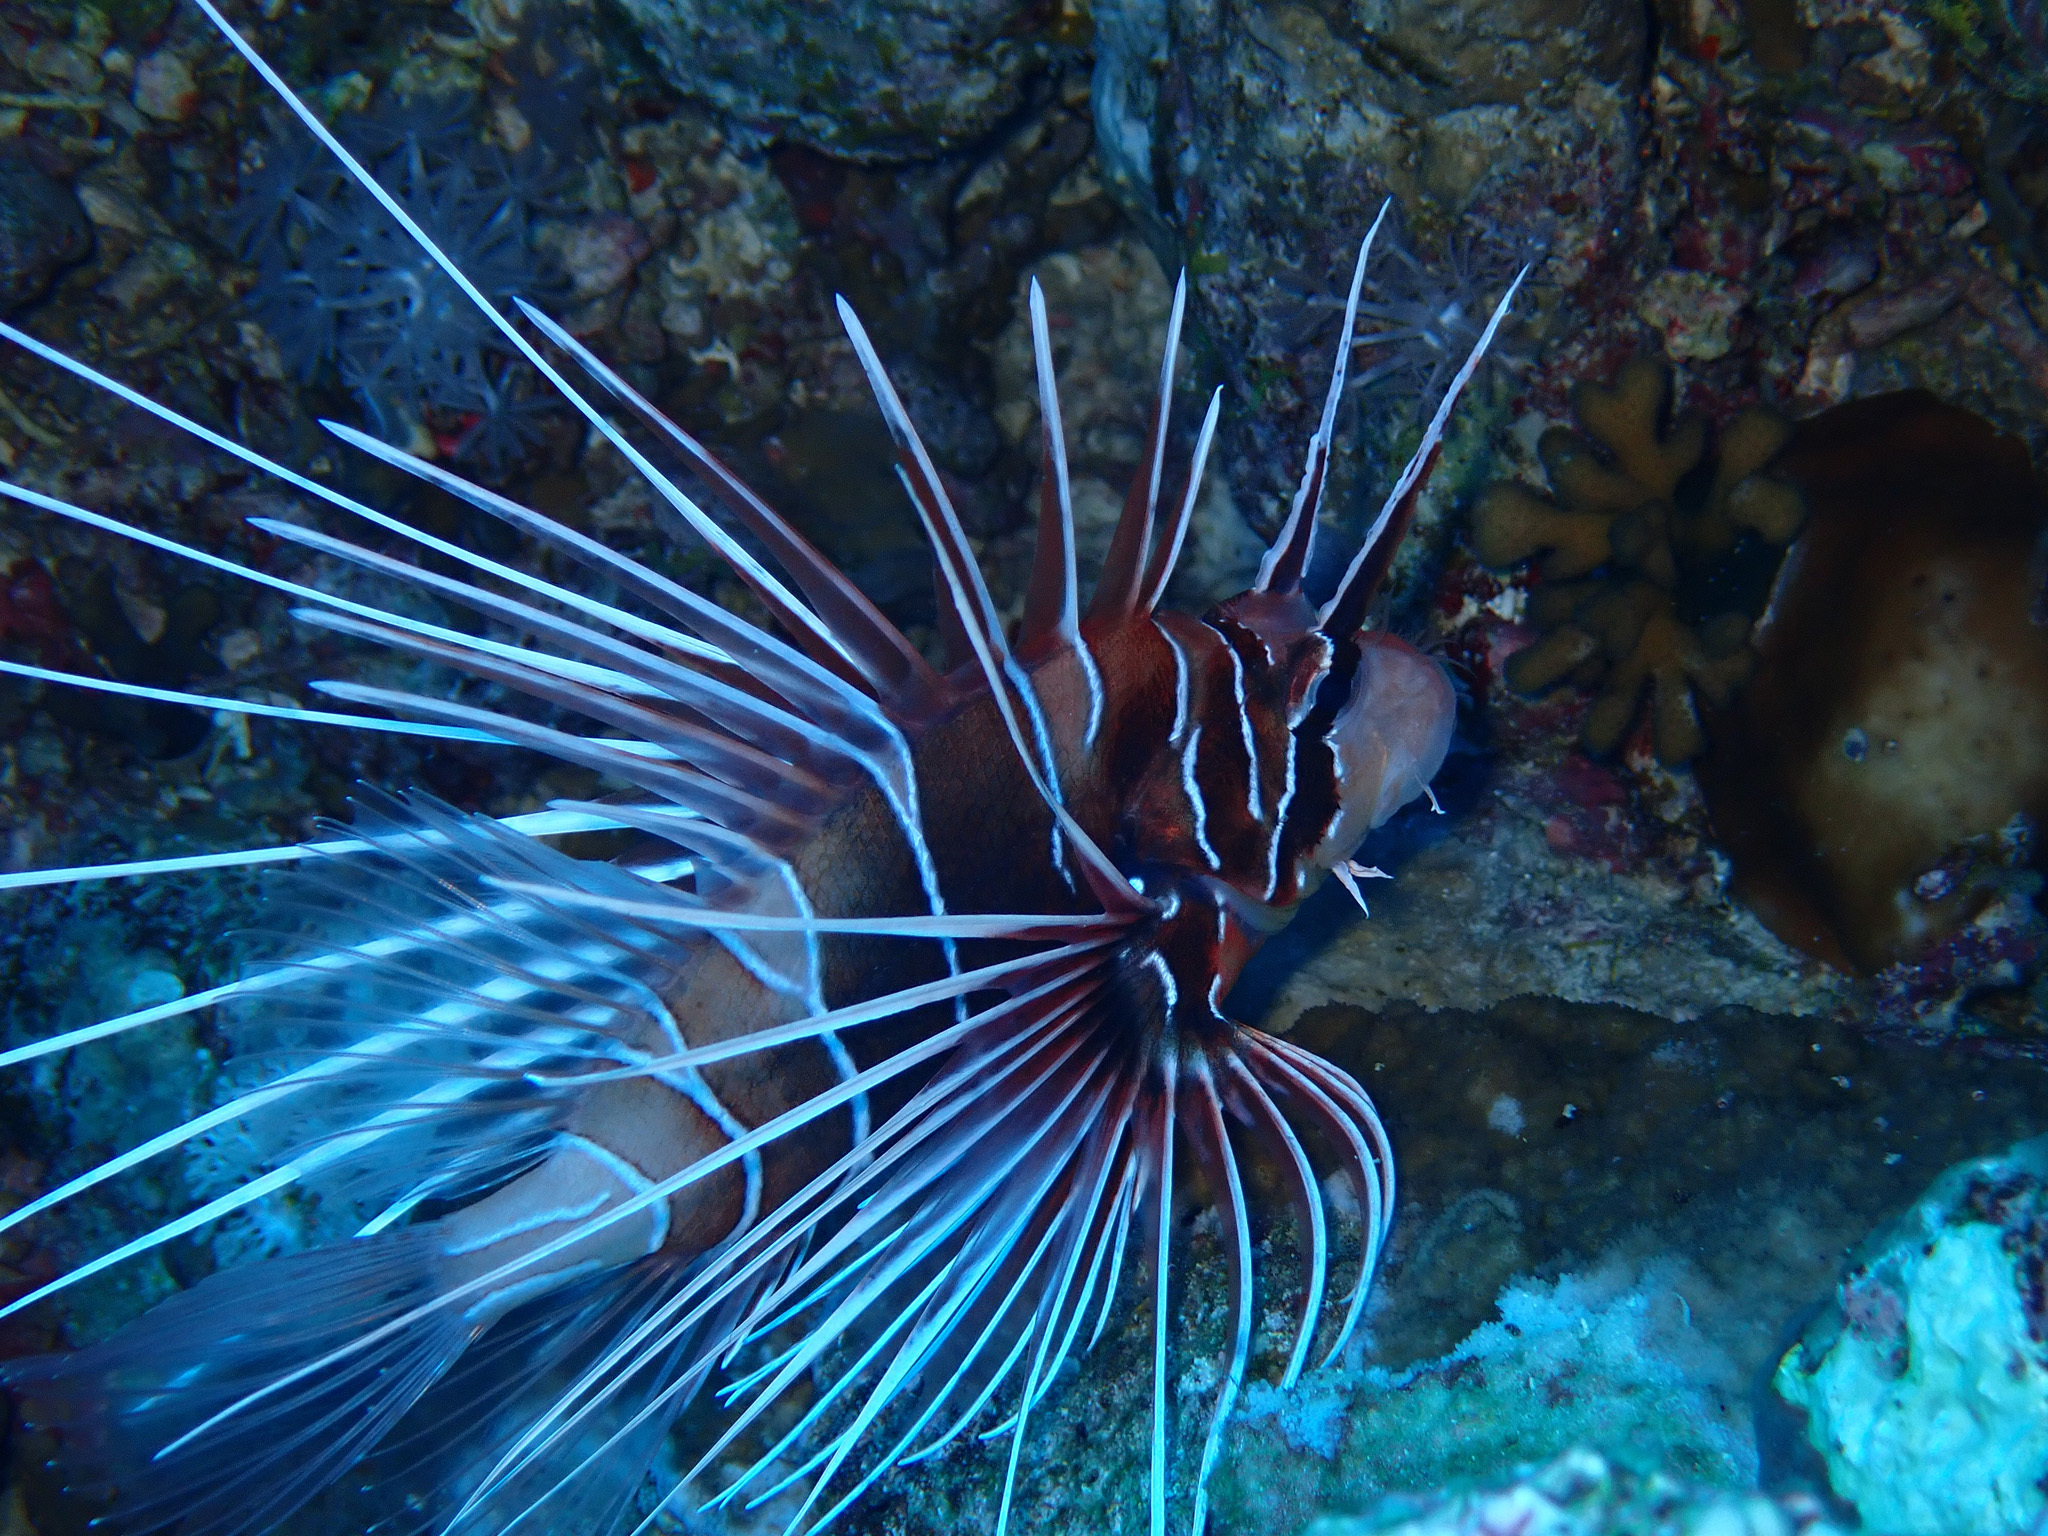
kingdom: Animalia
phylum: Chordata
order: Scorpaeniformes
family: Scorpaenidae
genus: Pterois
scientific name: Pterois cincta
